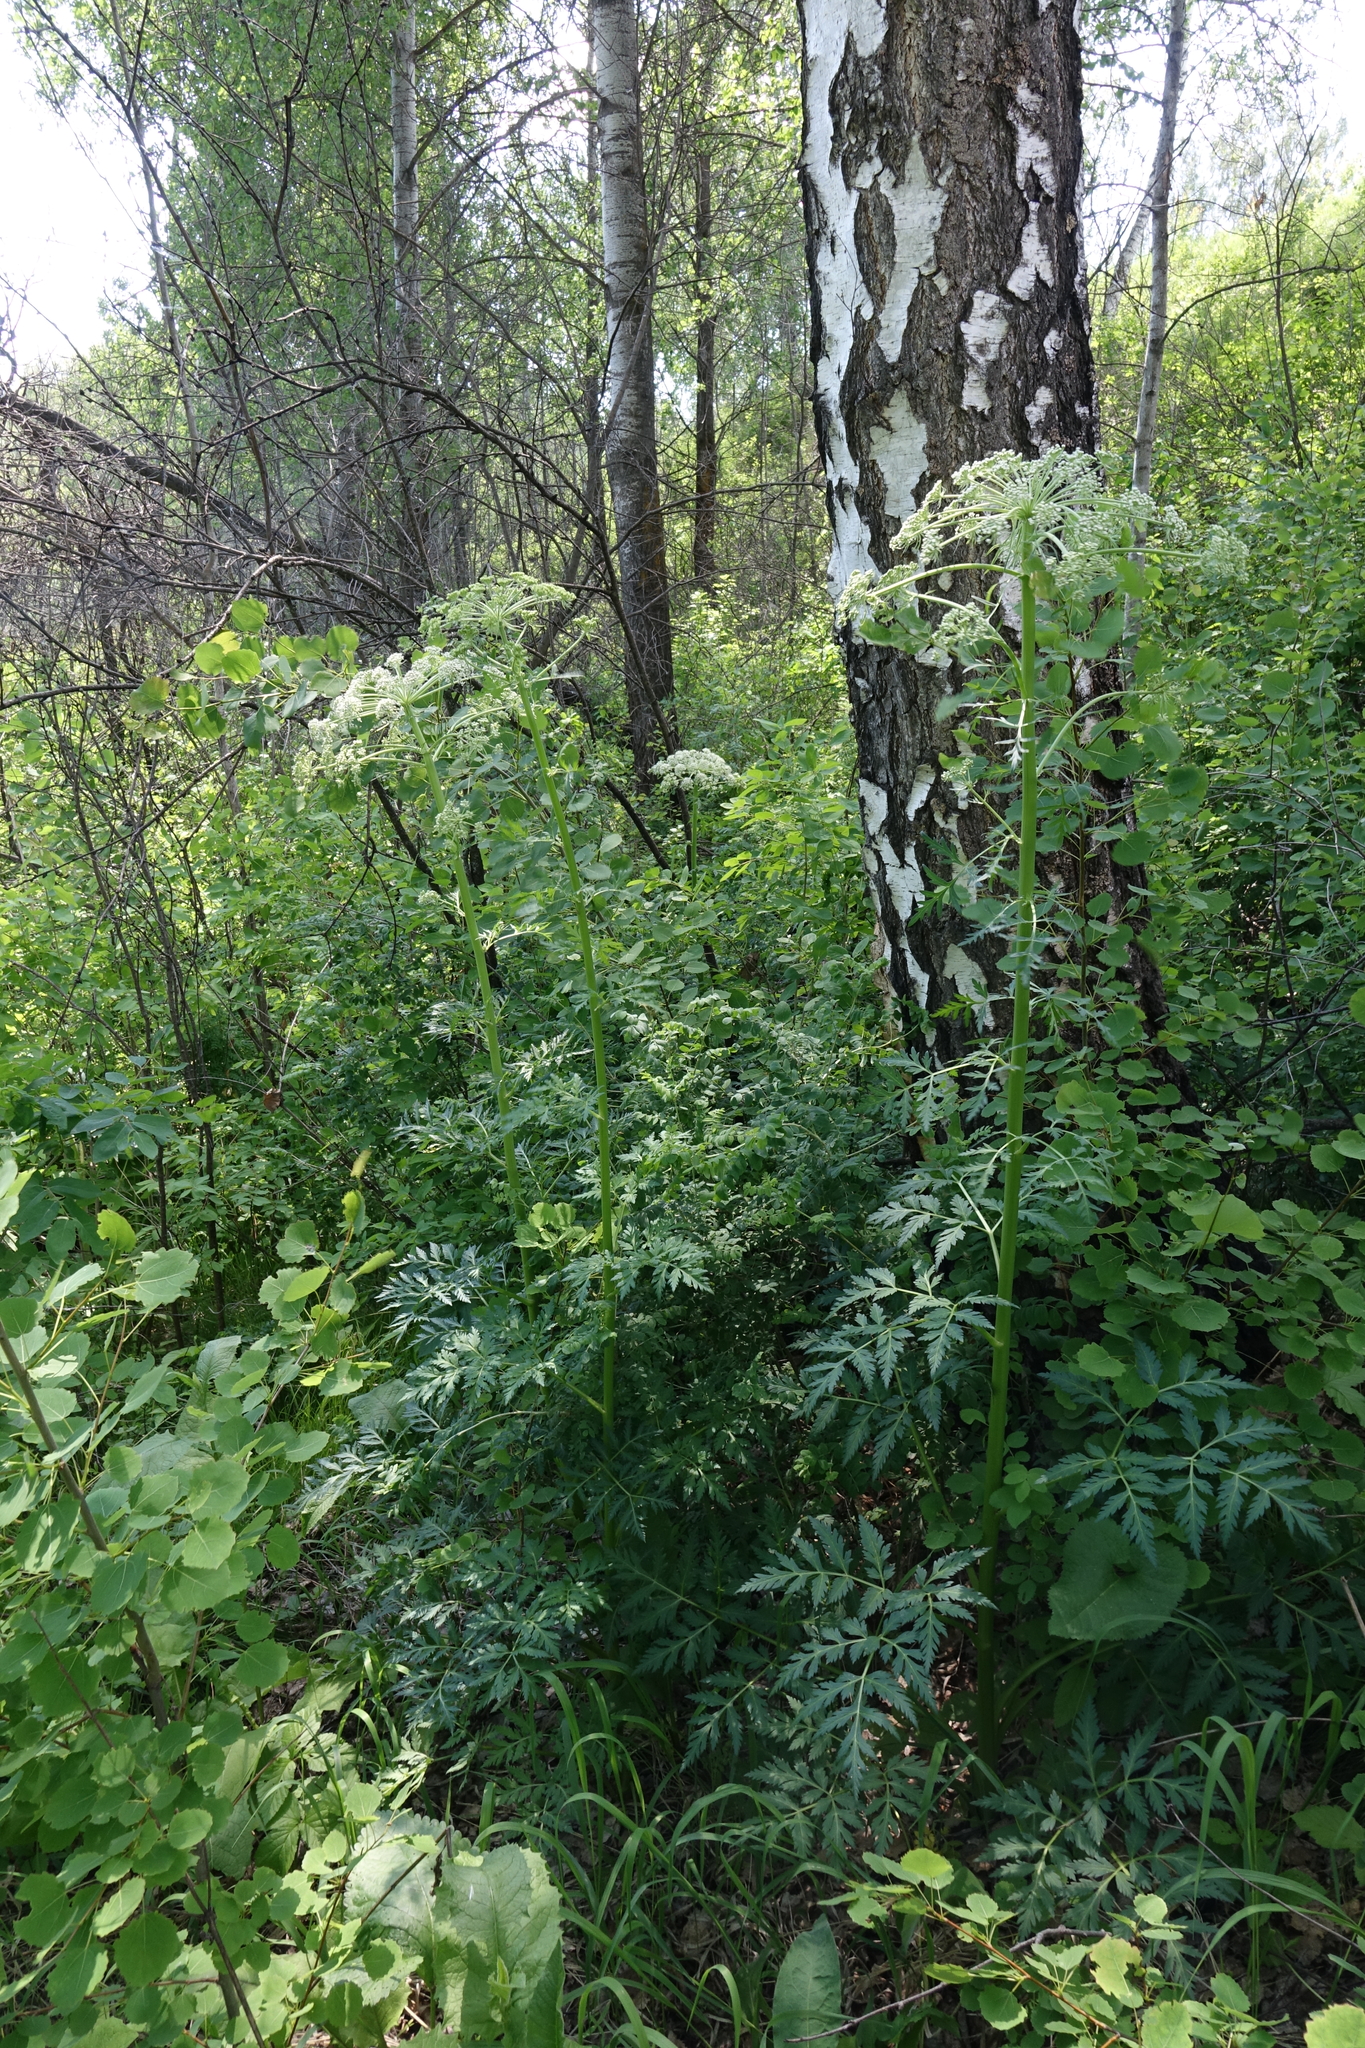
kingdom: Plantae
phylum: Tracheophyta
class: Magnoliopsida
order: Apiales
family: Apiaceae
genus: Pleurospermum
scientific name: Pleurospermum uralense
